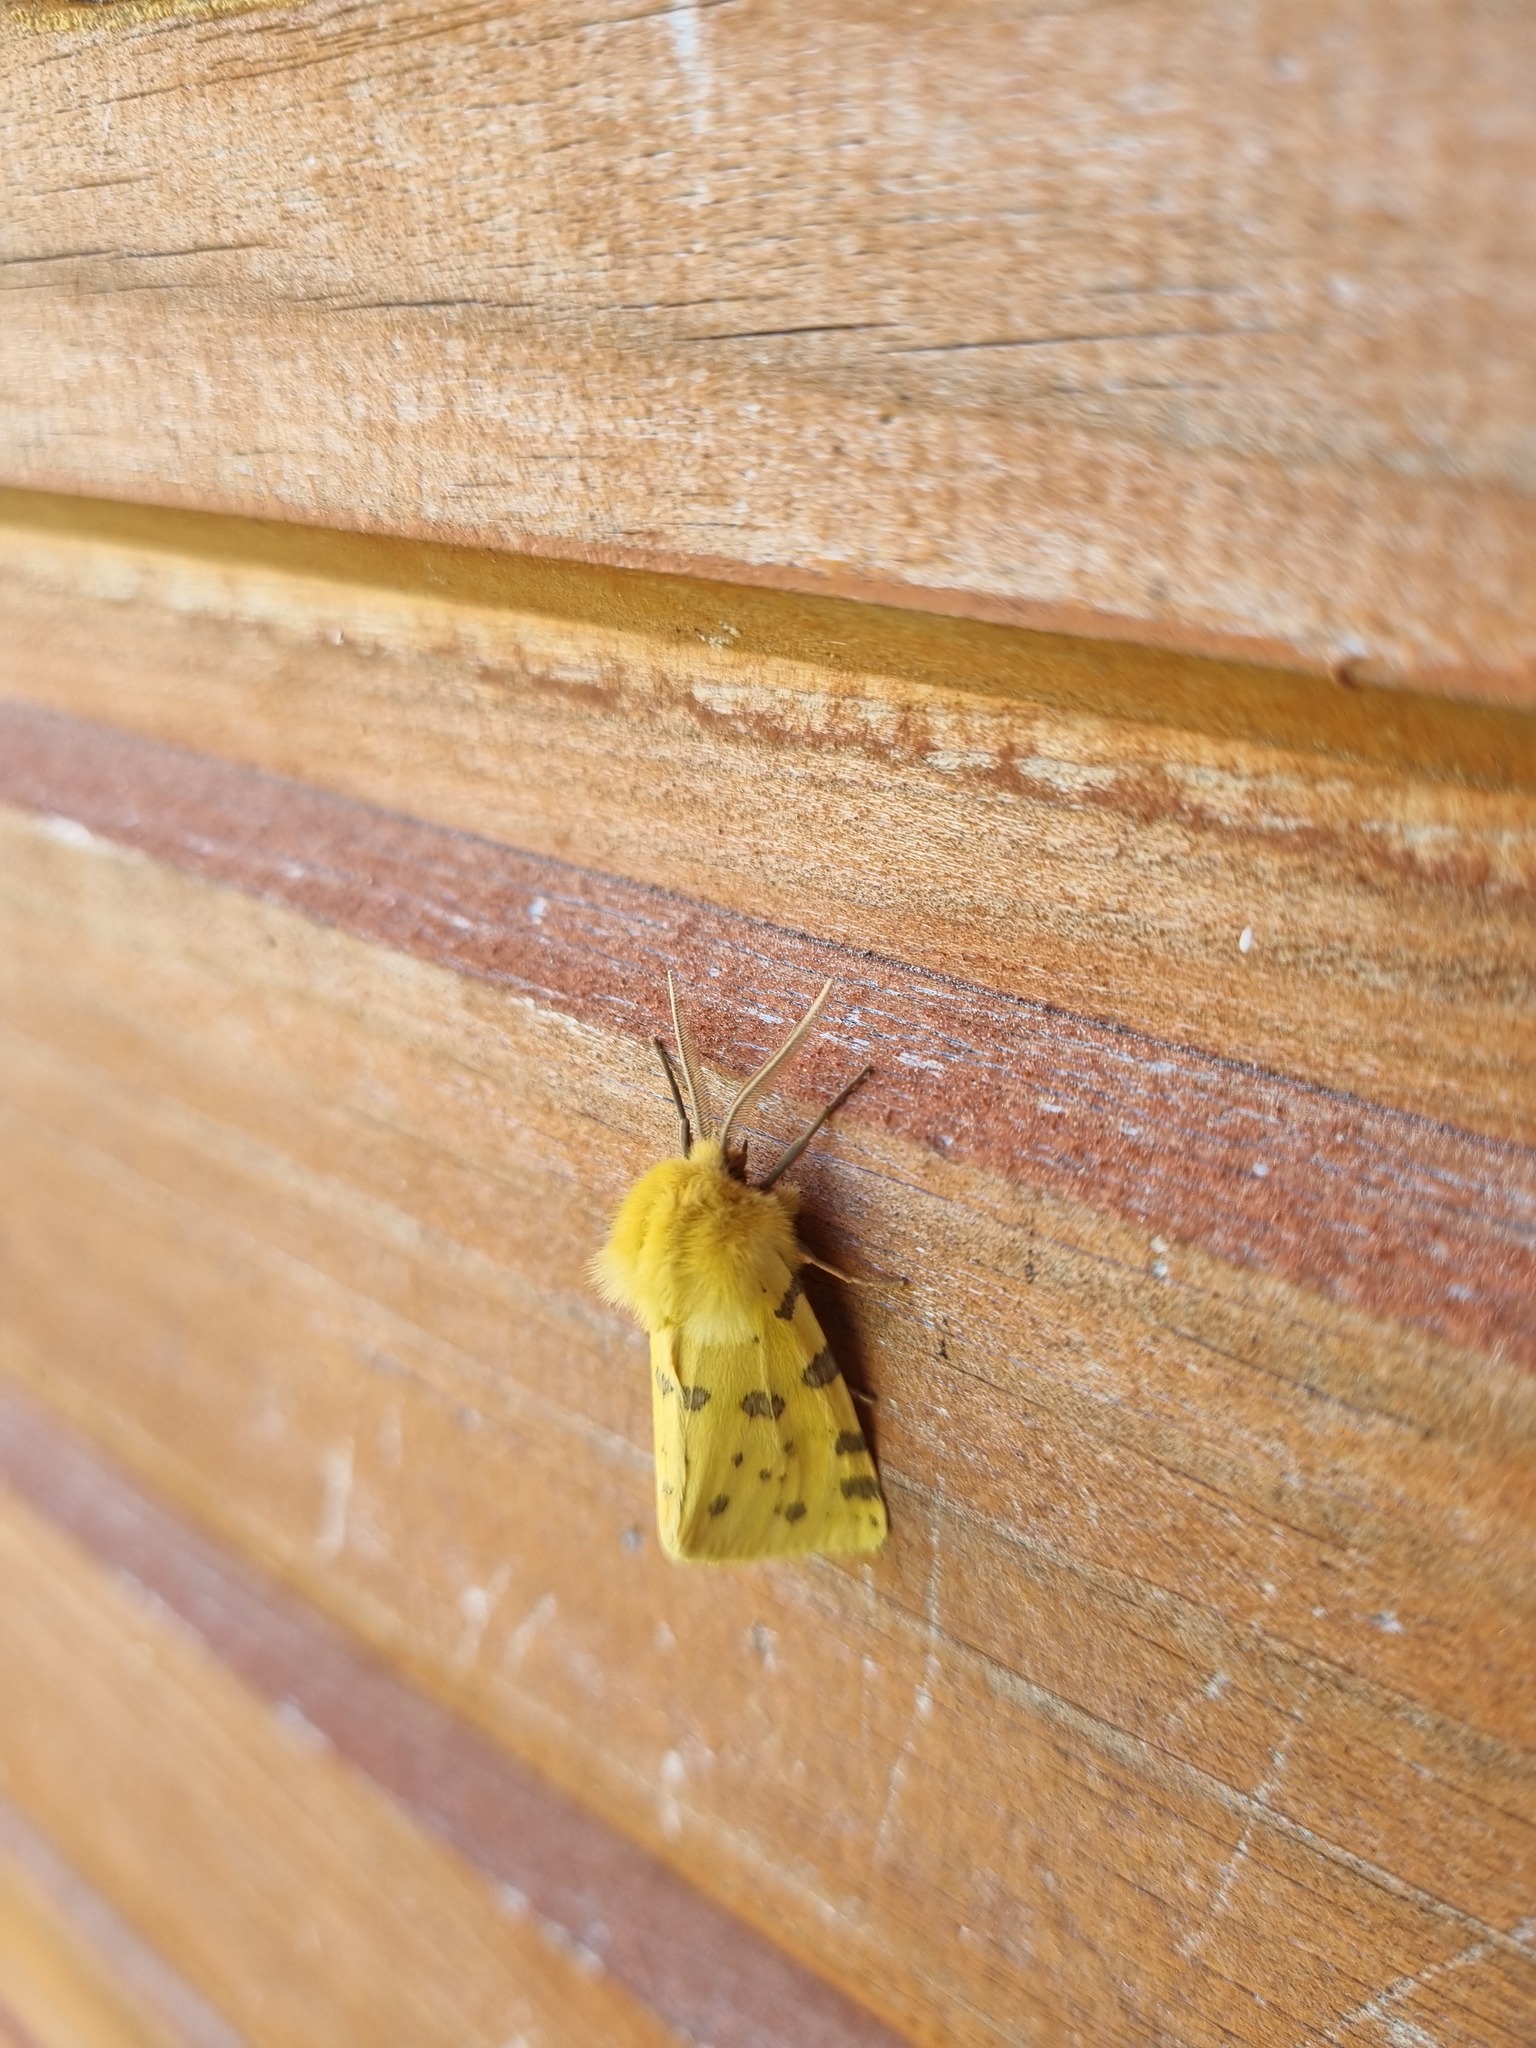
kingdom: Animalia
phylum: Arthropoda
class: Insecta
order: Lepidoptera
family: Erebidae
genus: Rhyparia
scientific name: Rhyparia purpurata
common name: Purple tiger
